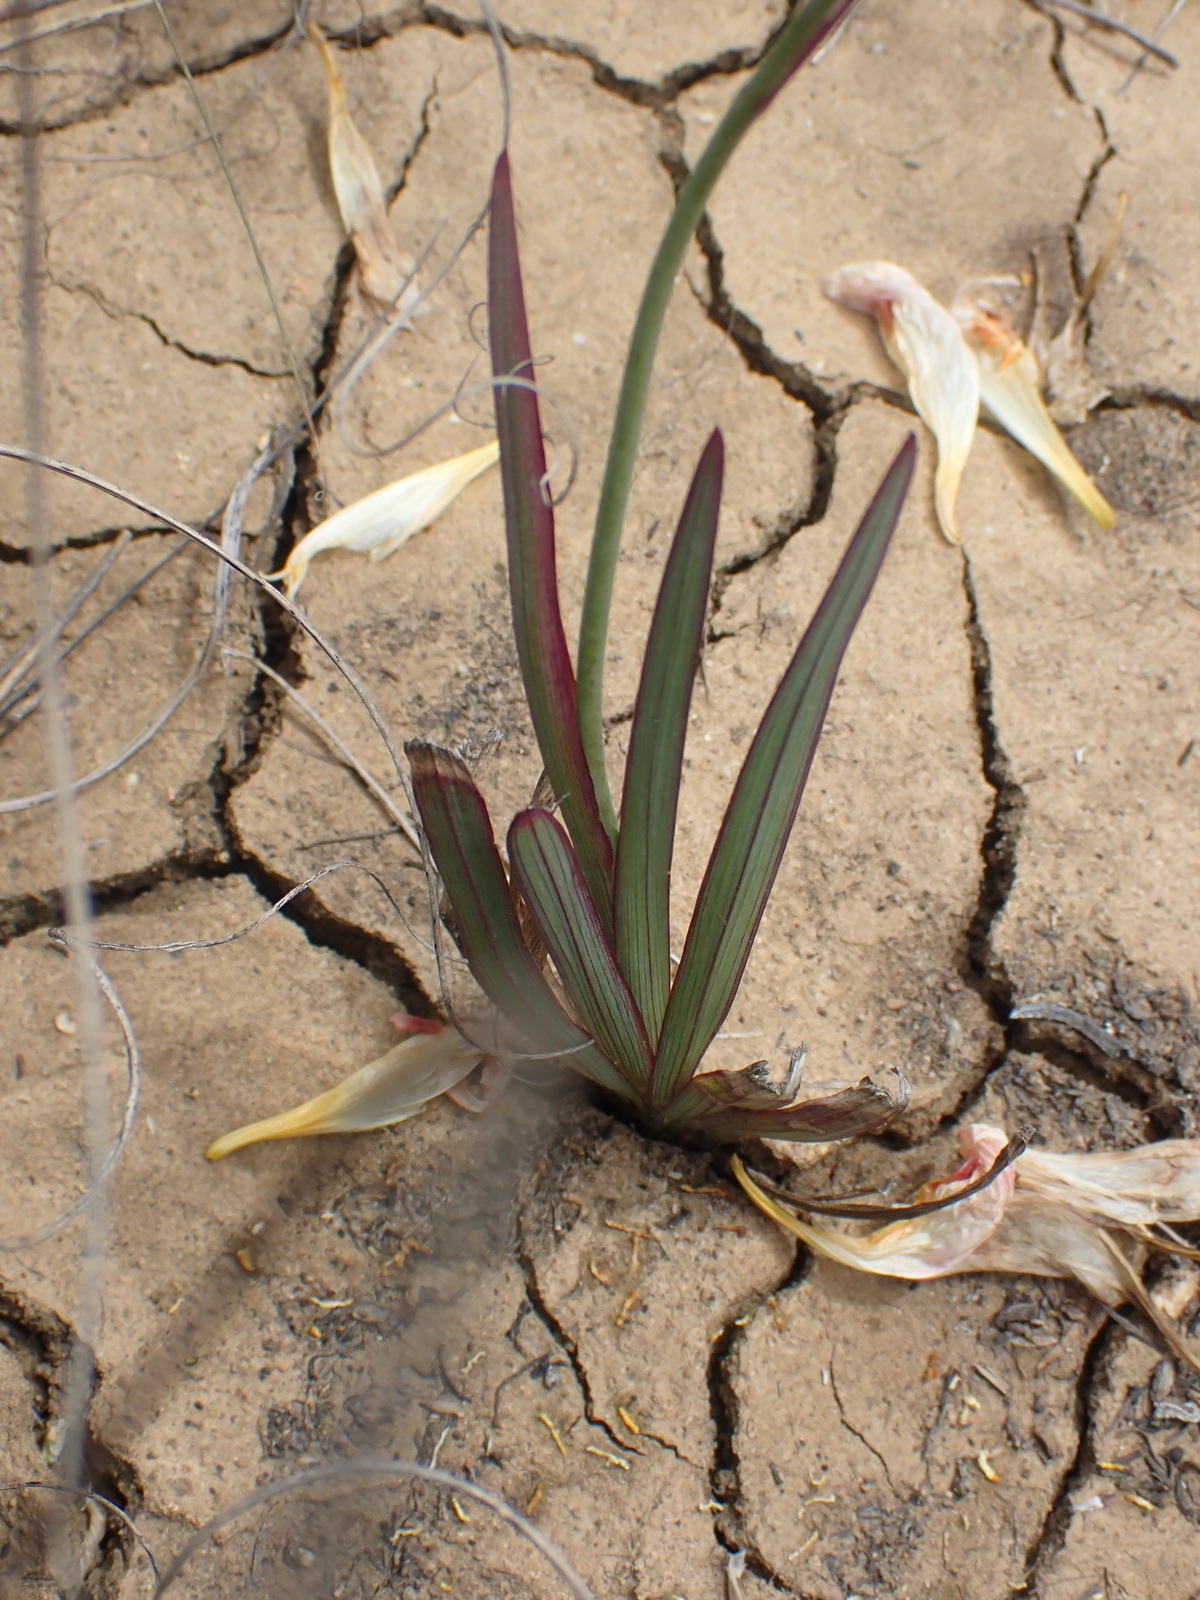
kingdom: Plantae
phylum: Tracheophyta
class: Liliopsida
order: Asparagales
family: Iridaceae
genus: Freesia
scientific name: Freesia corymbosa
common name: Common freesia
